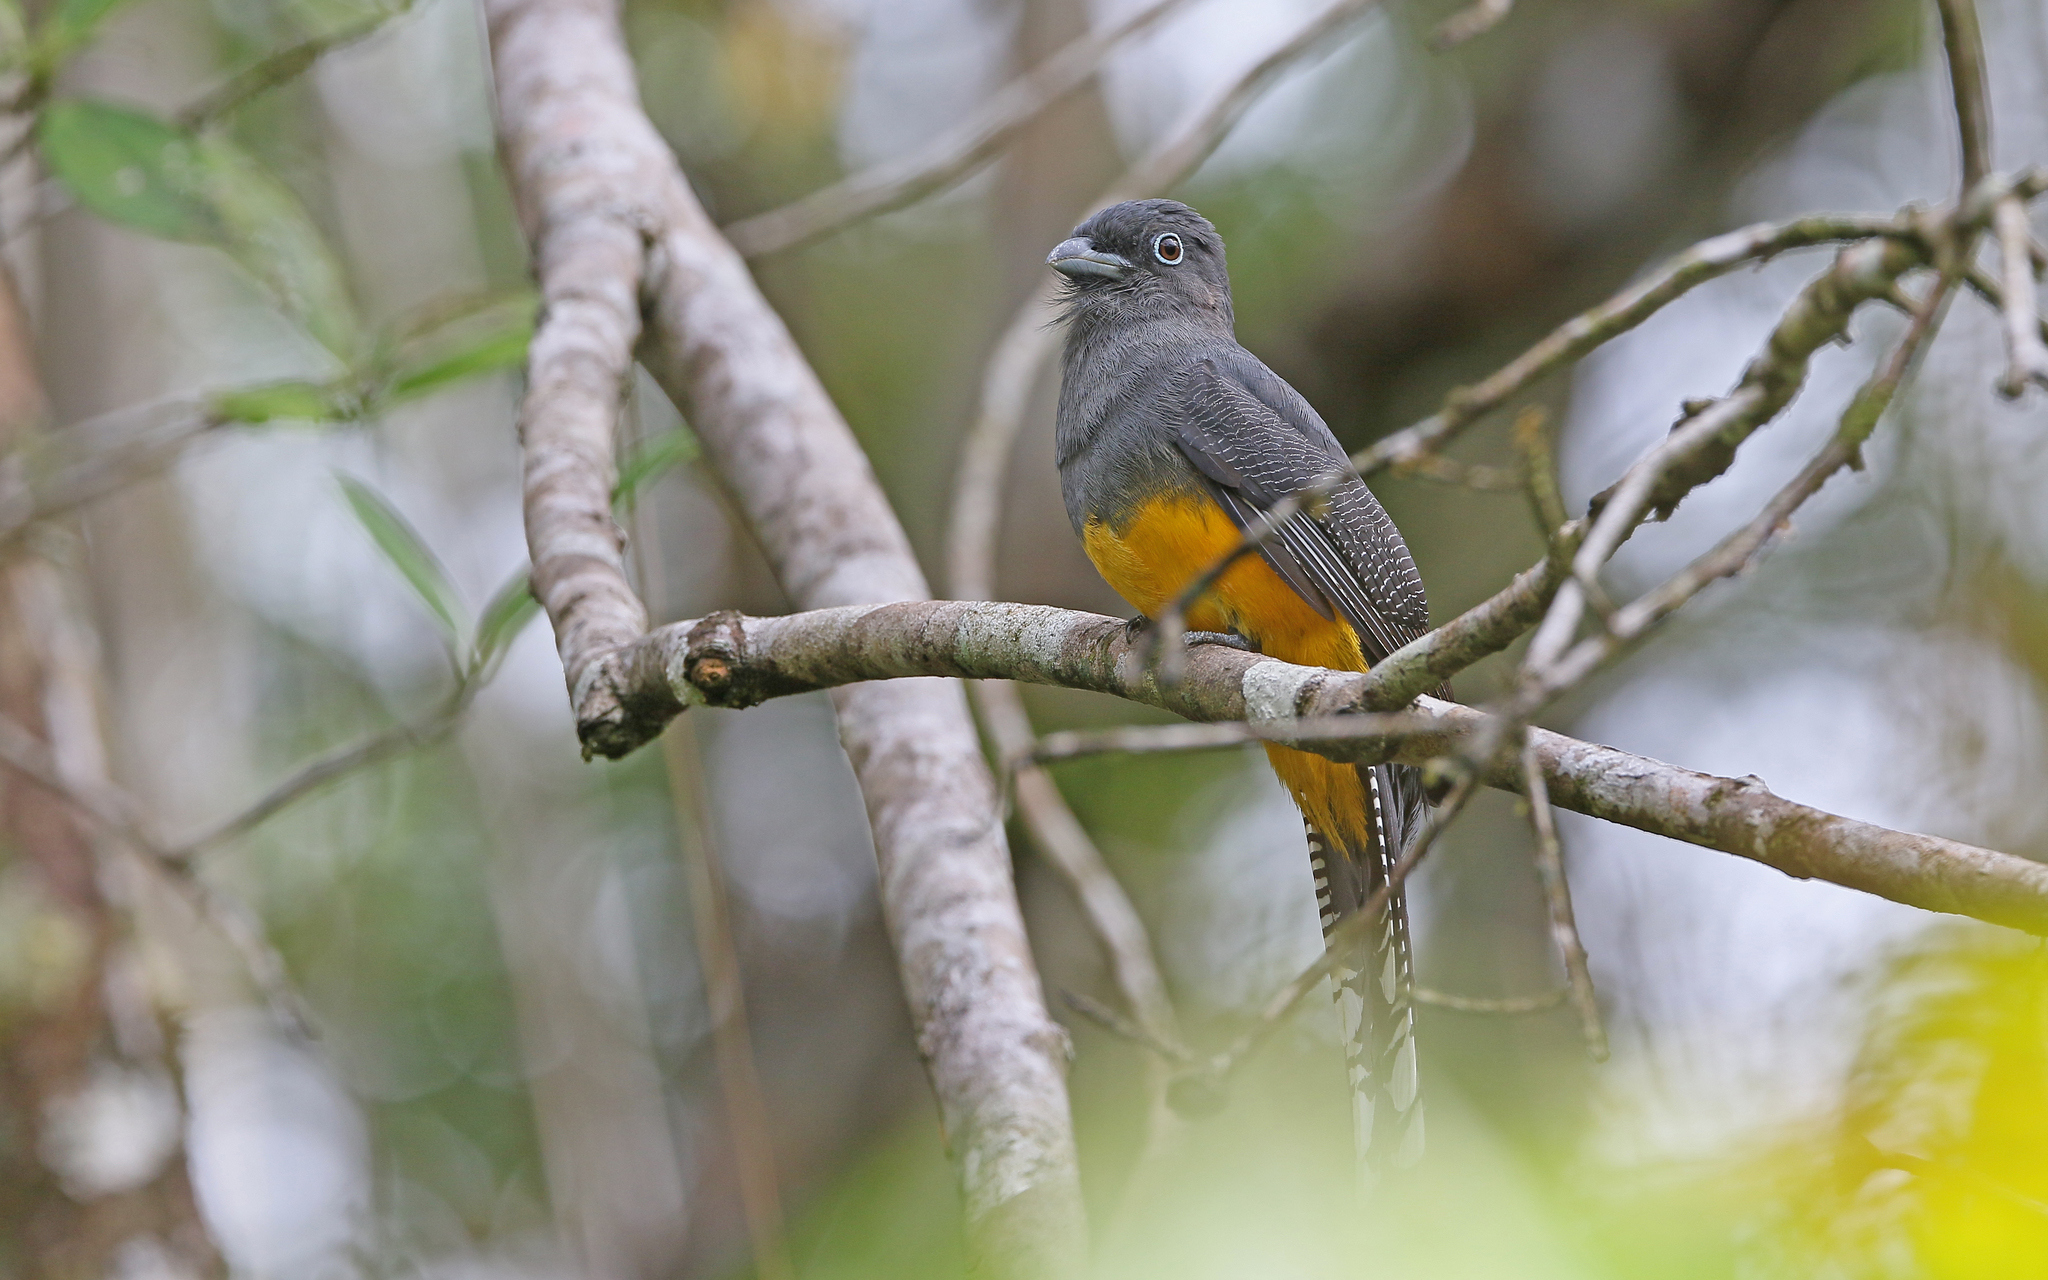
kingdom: Animalia
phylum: Chordata
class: Aves
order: Trogoniformes
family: Trogonidae
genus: Trogon
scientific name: Trogon viridis
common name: Green-backed trogon
